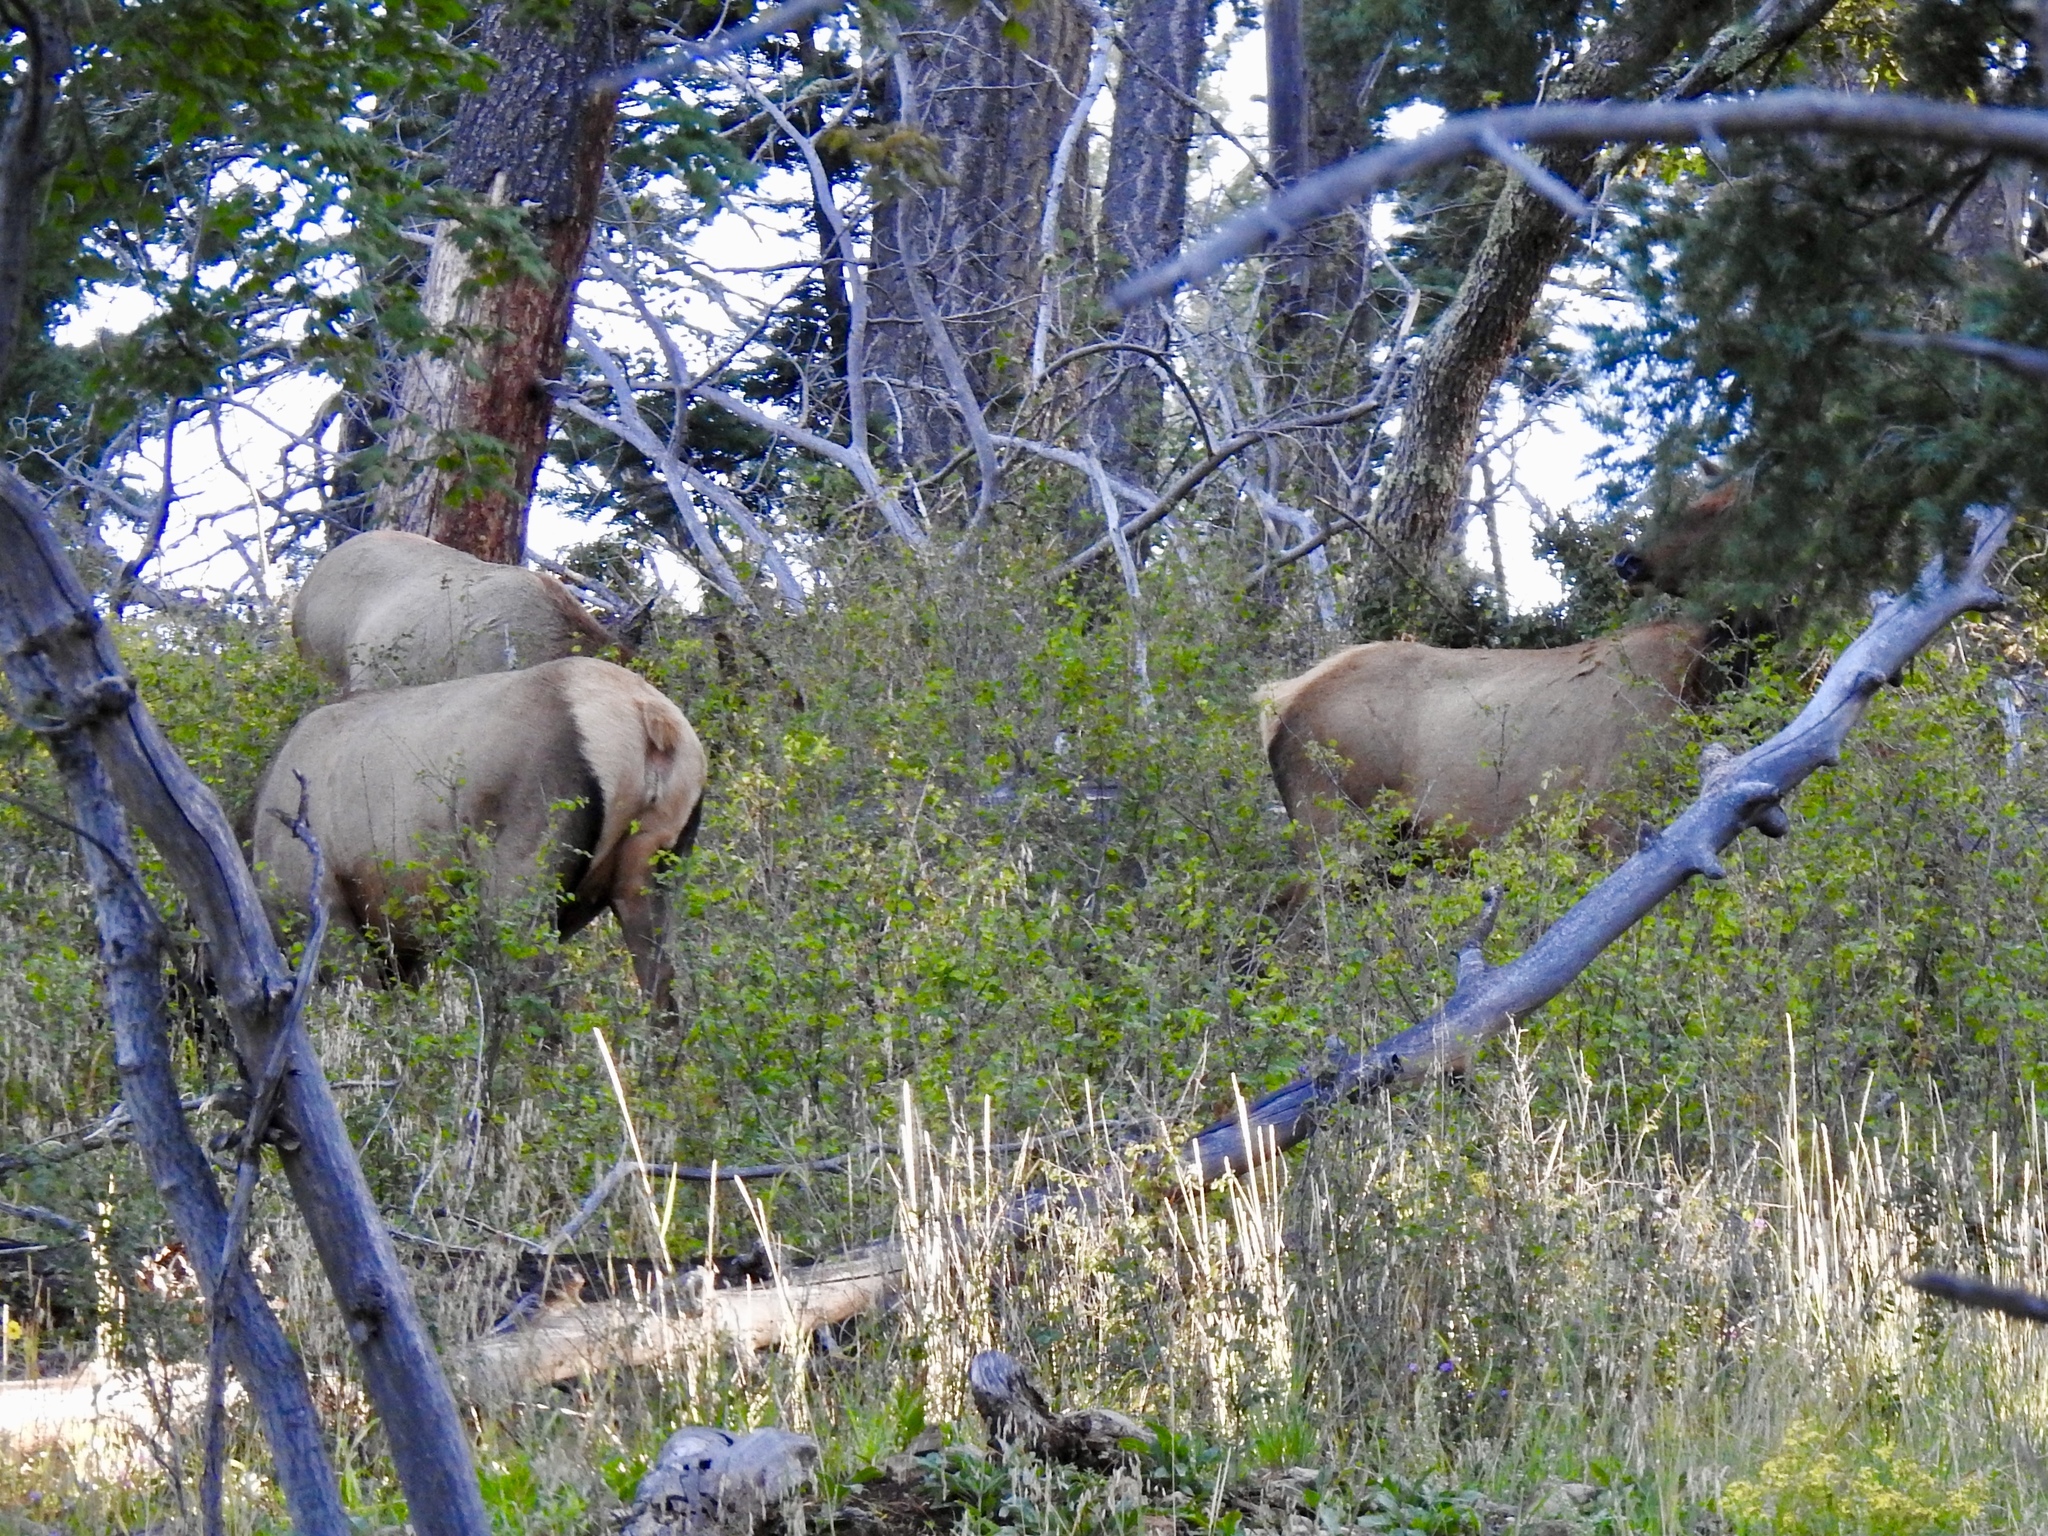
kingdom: Animalia
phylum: Chordata
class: Mammalia
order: Artiodactyla
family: Cervidae
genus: Cervus
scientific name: Cervus elaphus
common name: Red deer
